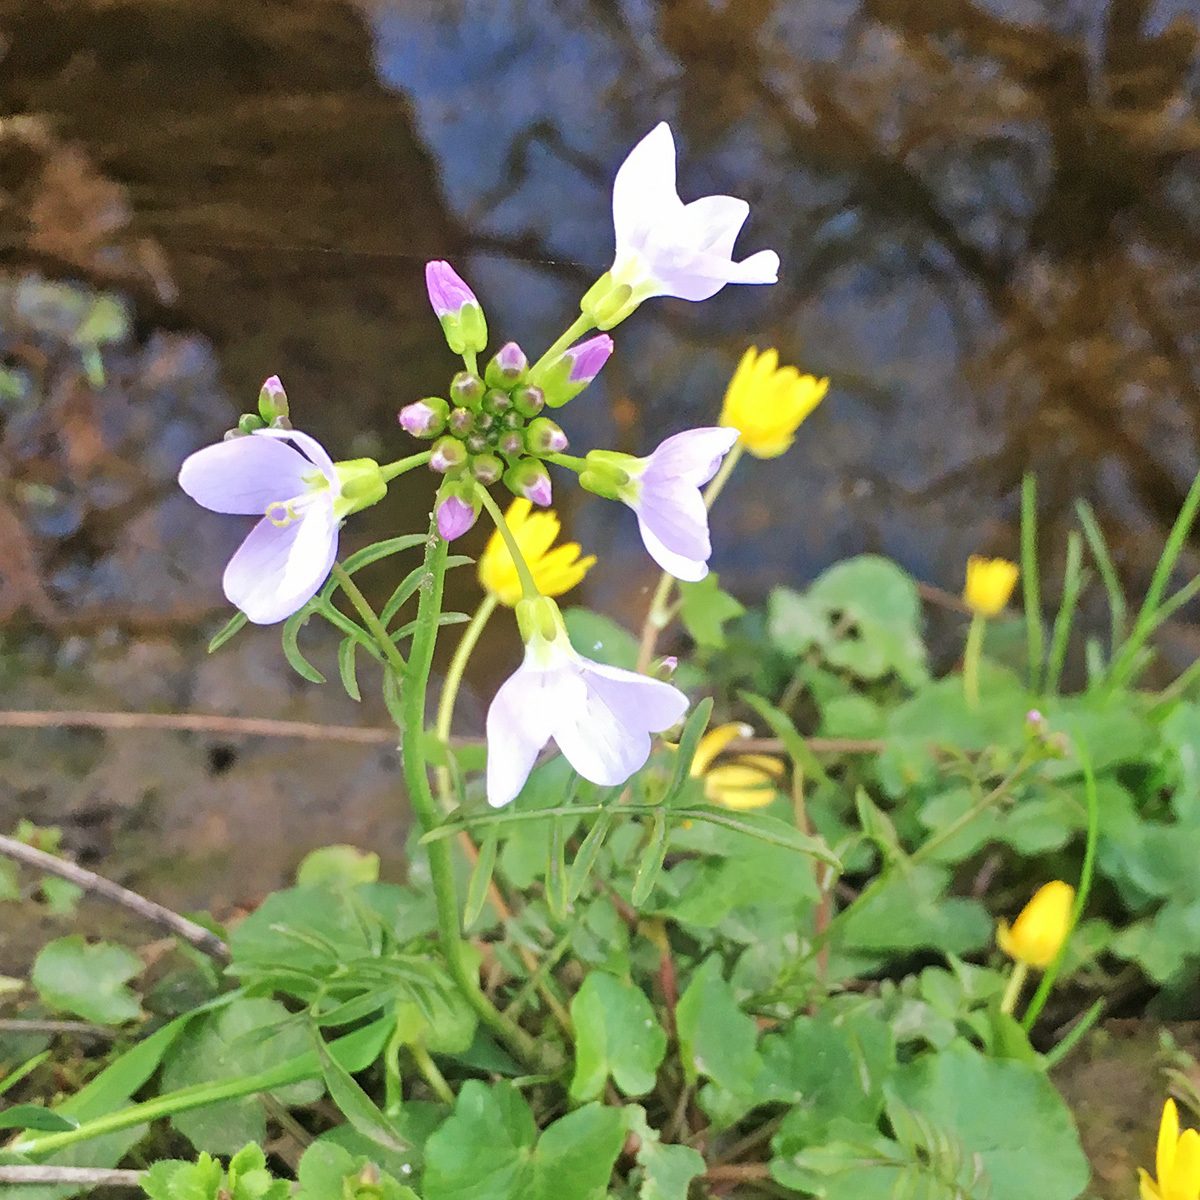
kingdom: Plantae
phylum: Tracheophyta
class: Magnoliopsida
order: Brassicales
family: Brassicaceae
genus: Cardamine
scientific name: Cardamine pratensis
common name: Cuckoo flower
